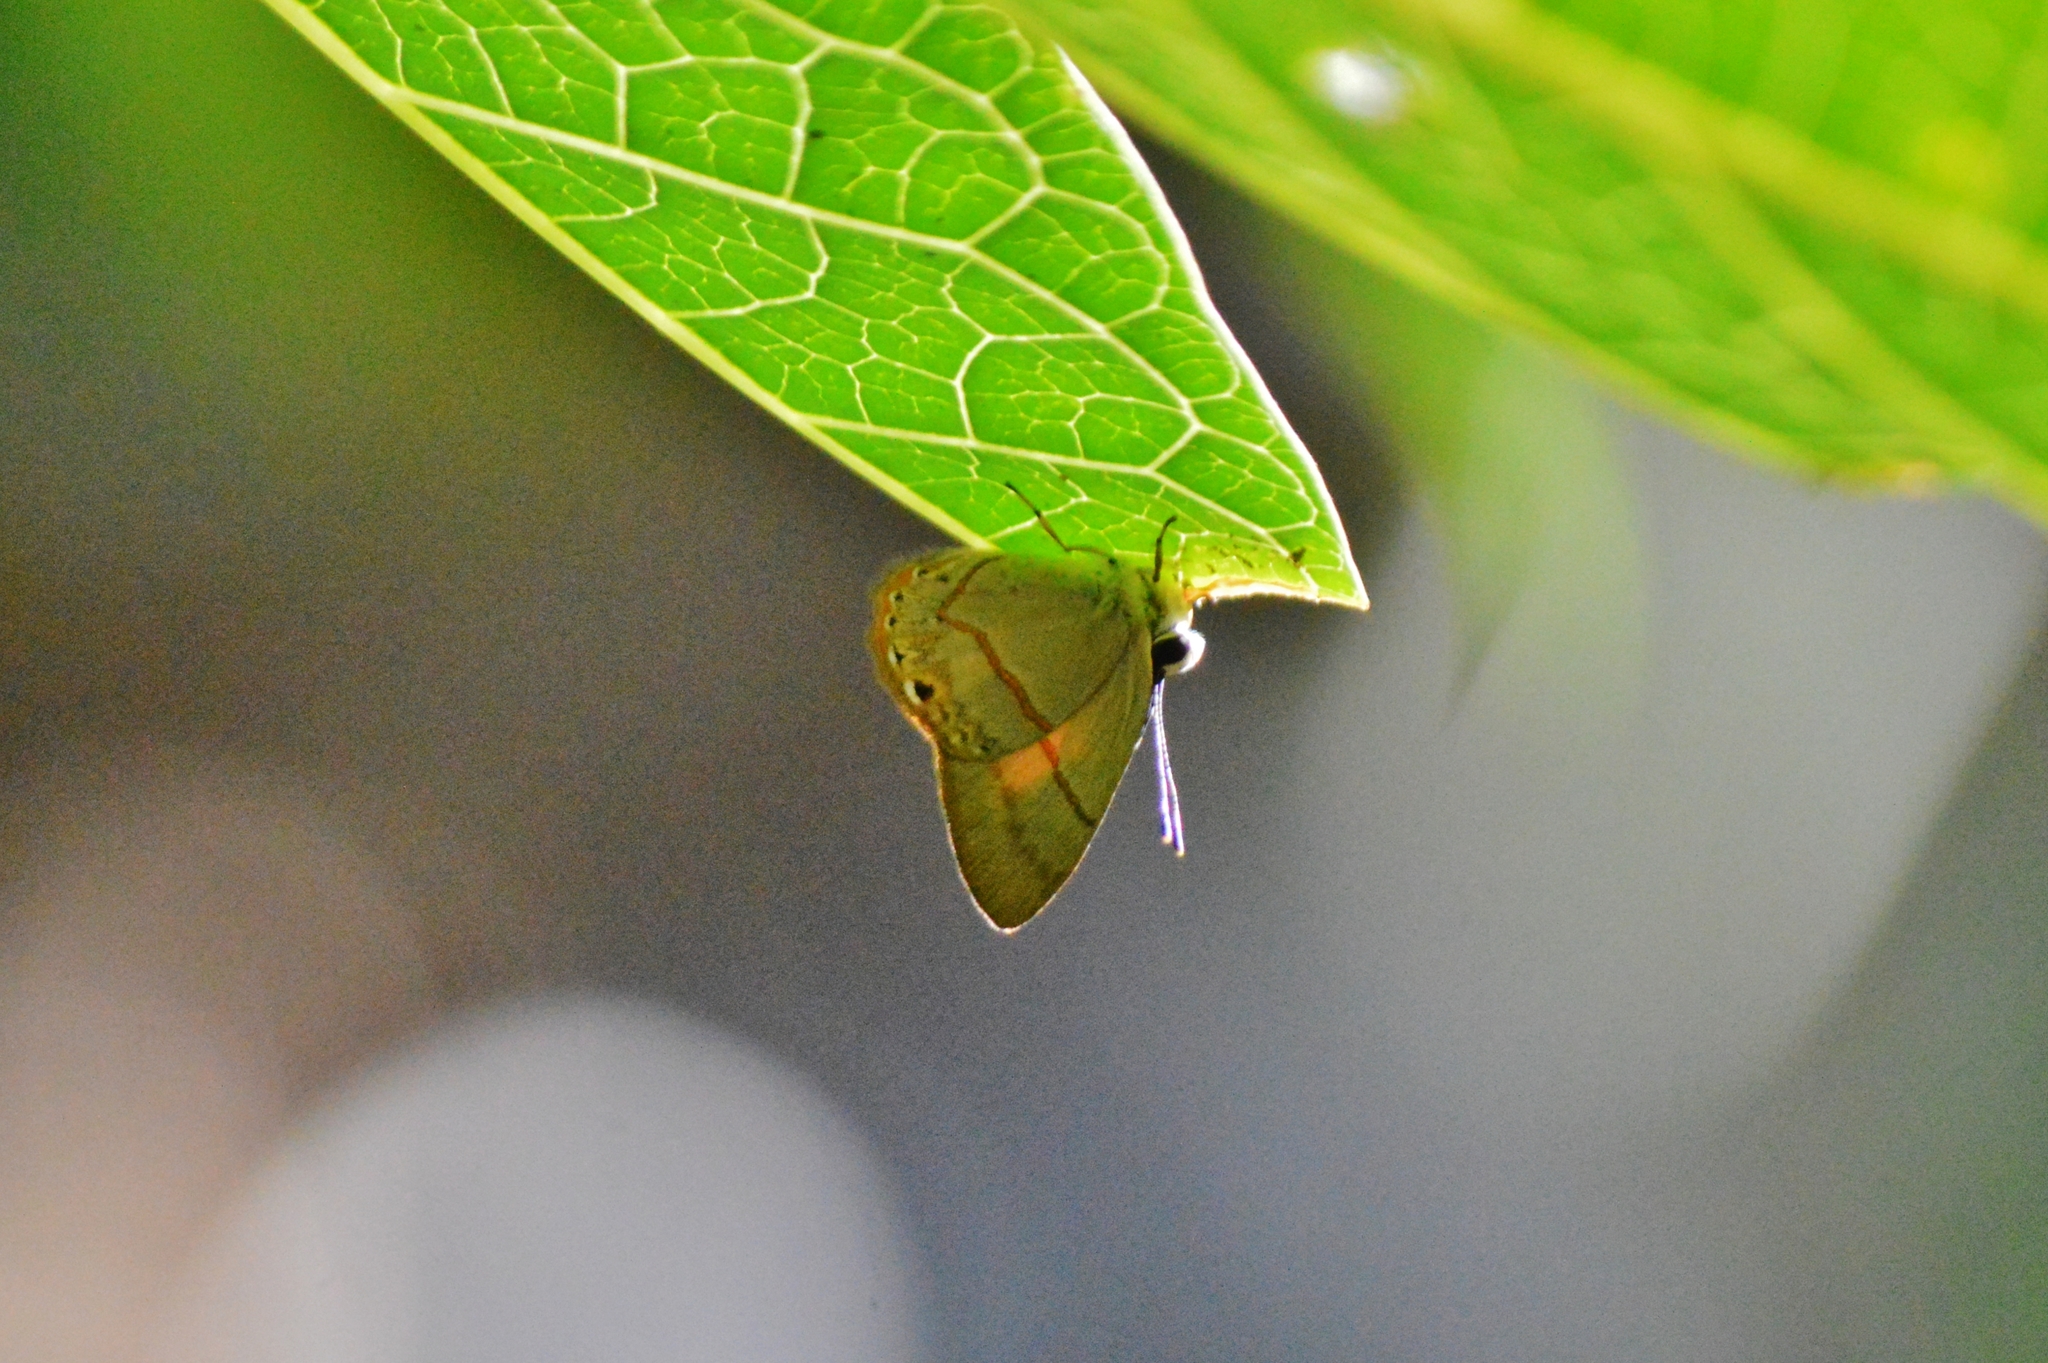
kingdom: Animalia
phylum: Arthropoda
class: Insecta
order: Lepidoptera
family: Riodinidae
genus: Myselasia
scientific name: Myselasia
